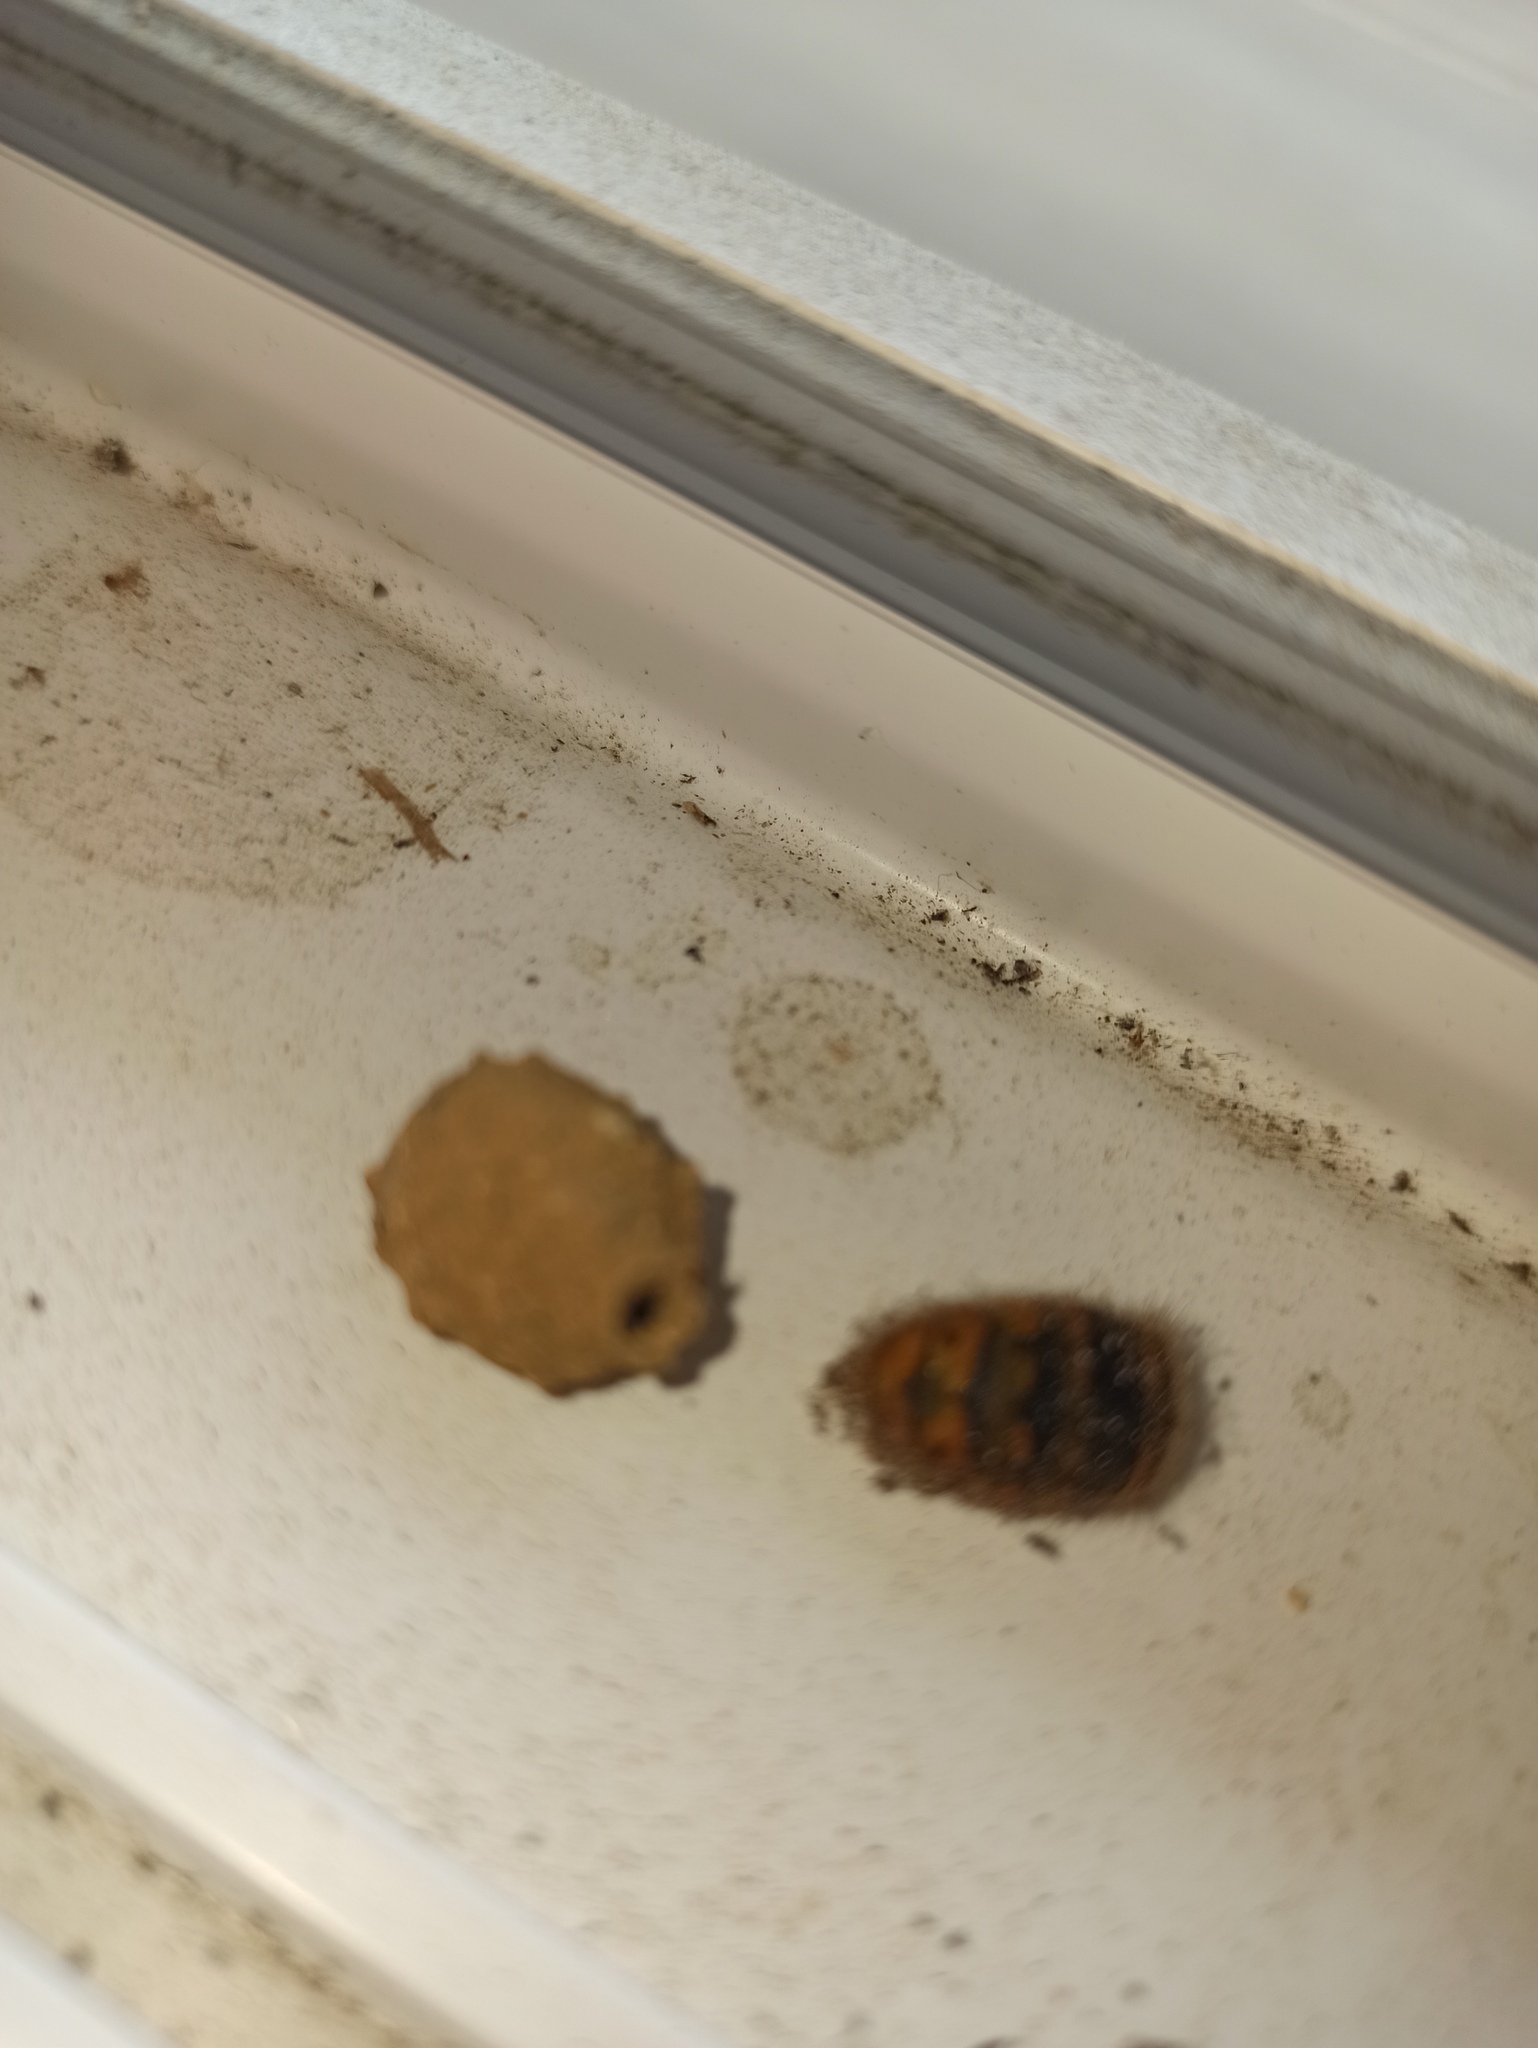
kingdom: Animalia
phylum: Arthropoda
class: Insecta
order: Hymenoptera
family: Vespidae
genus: Vespa
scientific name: Vespa crabro
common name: Hornet
